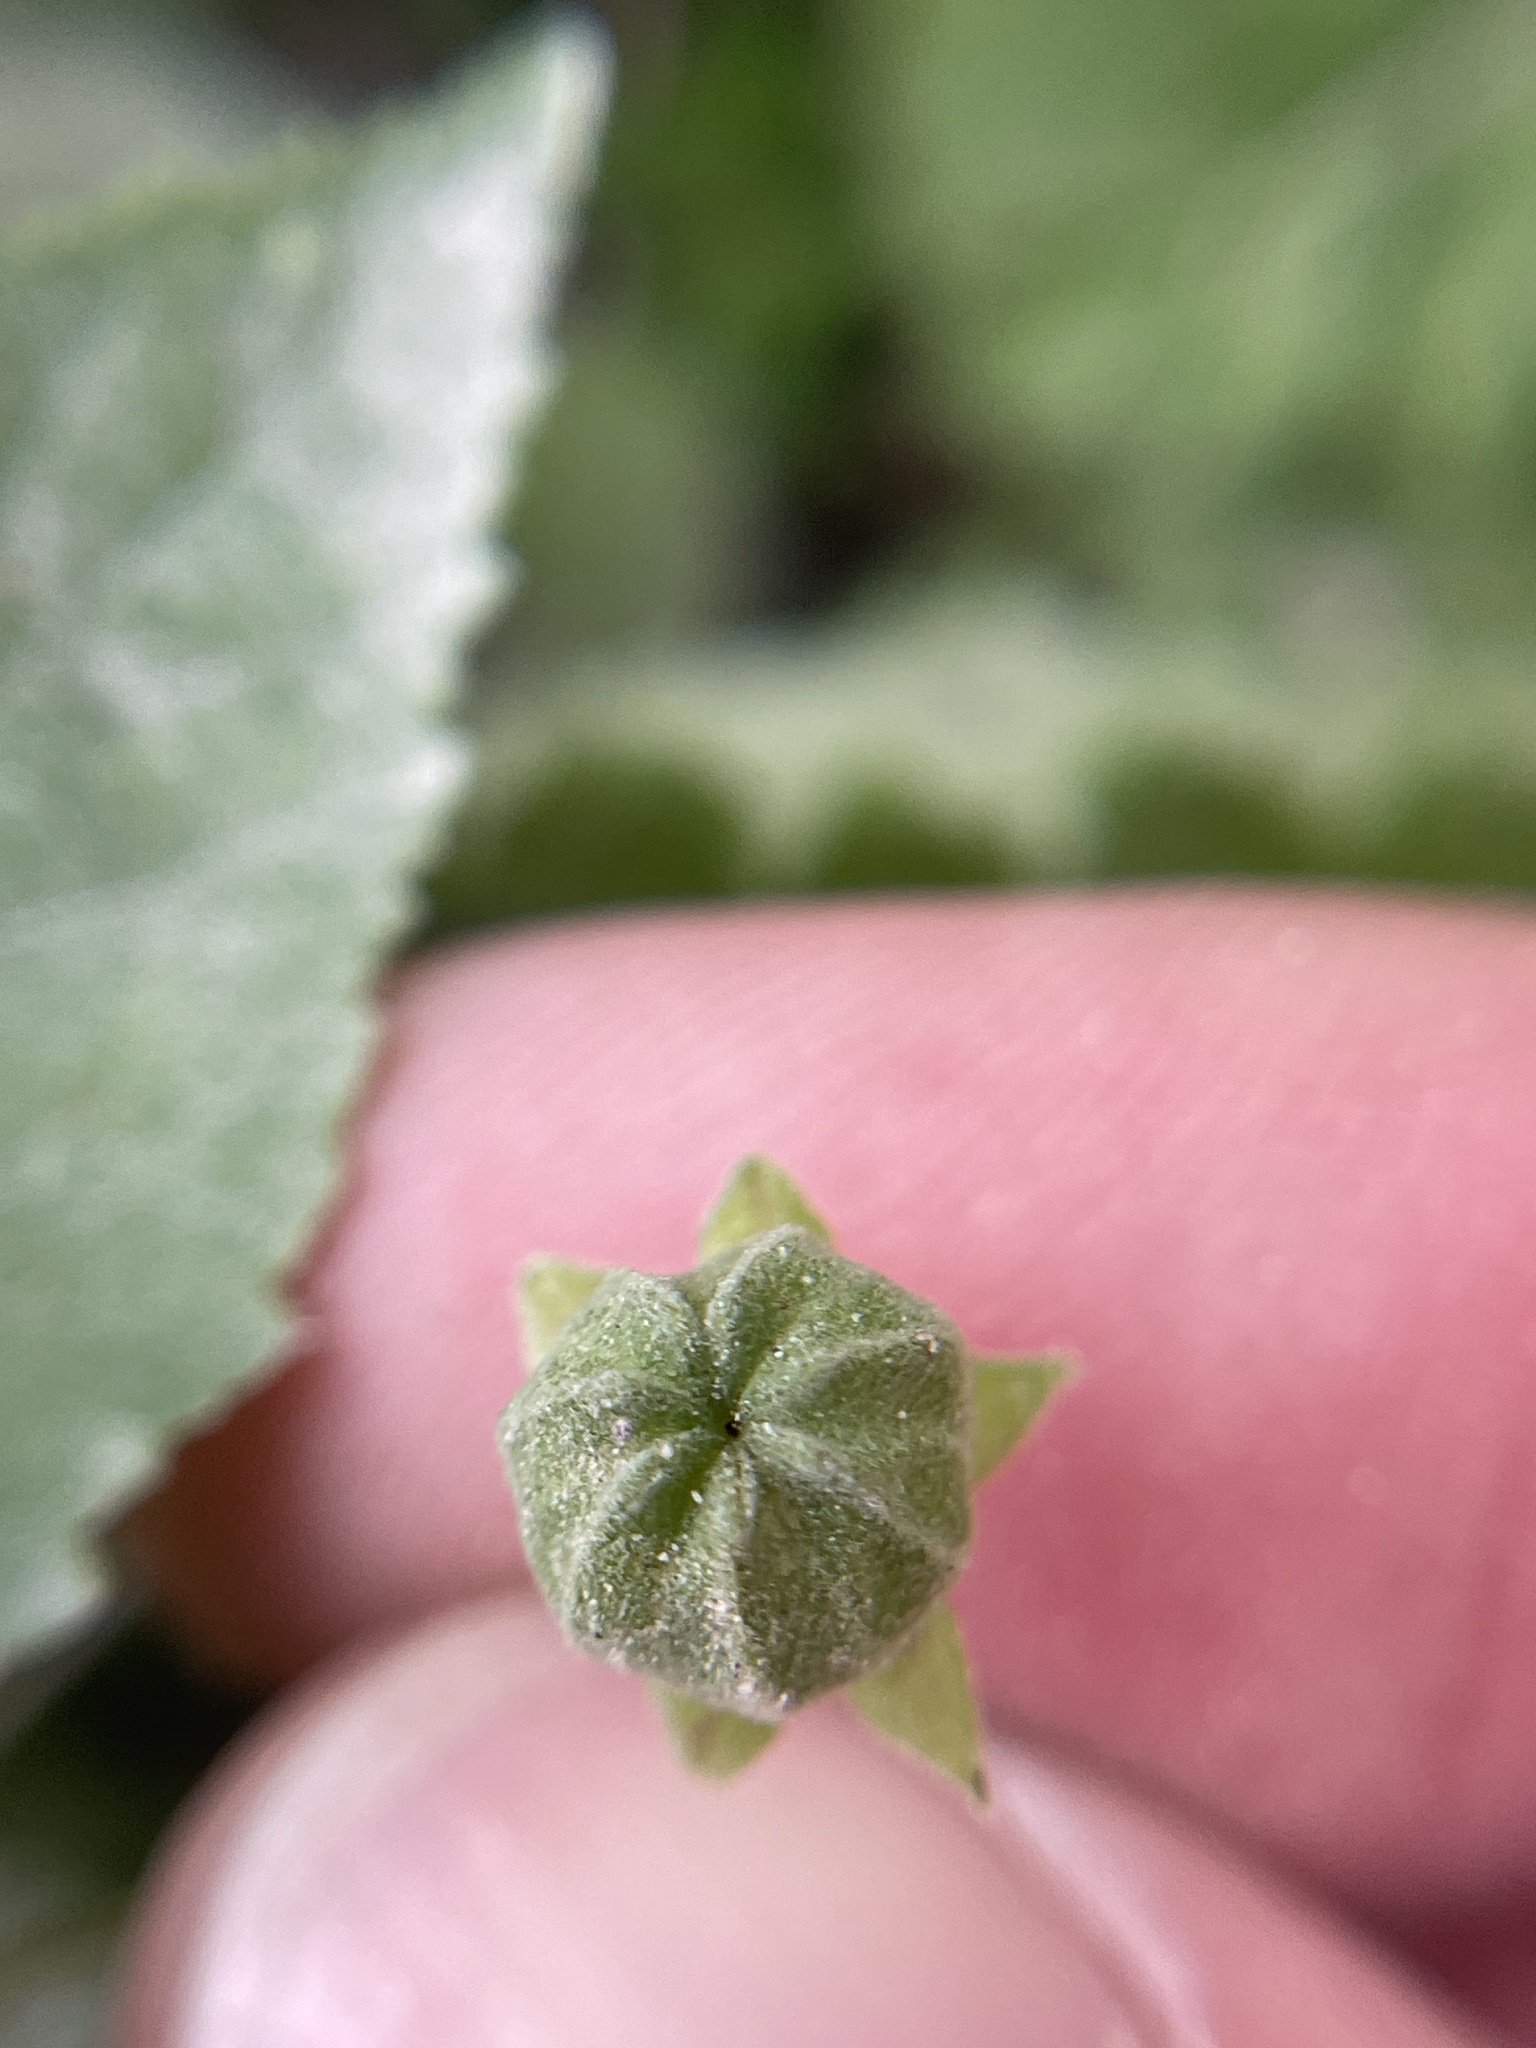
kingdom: Plantae
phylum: Tracheophyta
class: Magnoliopsida
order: Malvales
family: Malvaceae
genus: Abutilon
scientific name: Abutilon fruticosum
